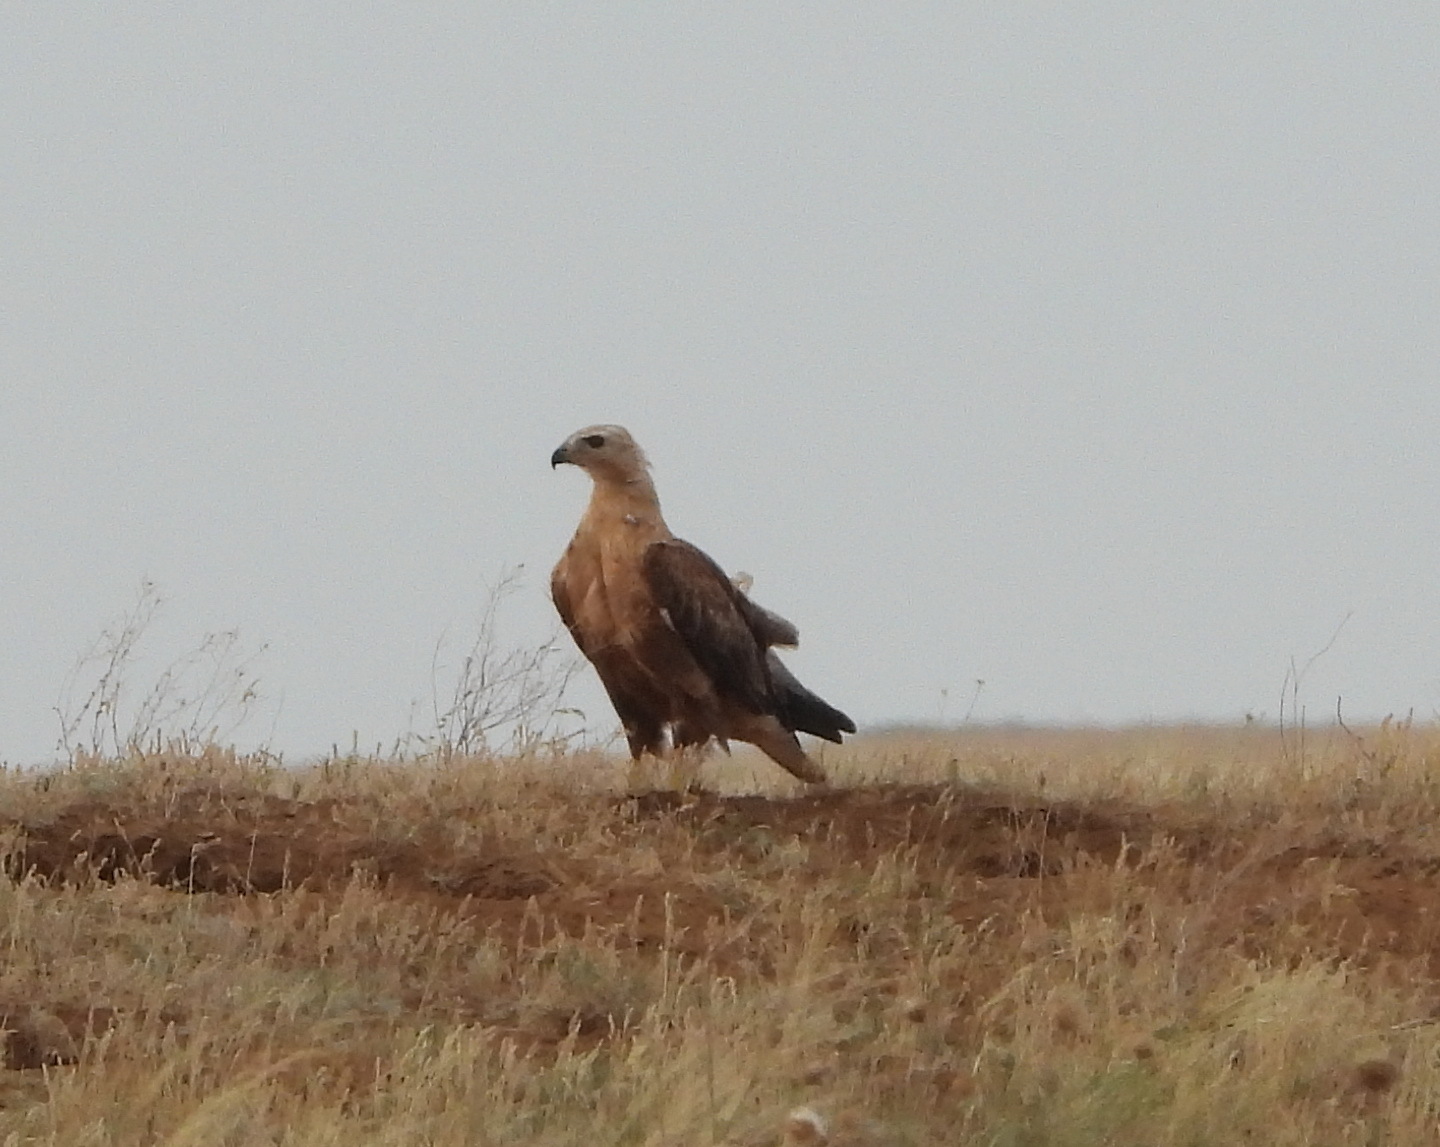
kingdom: Animalia
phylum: Chordata
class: Aves
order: Accipitriformes
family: Accipitridae
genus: Buteo
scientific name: Buteo rufinus
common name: Long-legged buzzard
